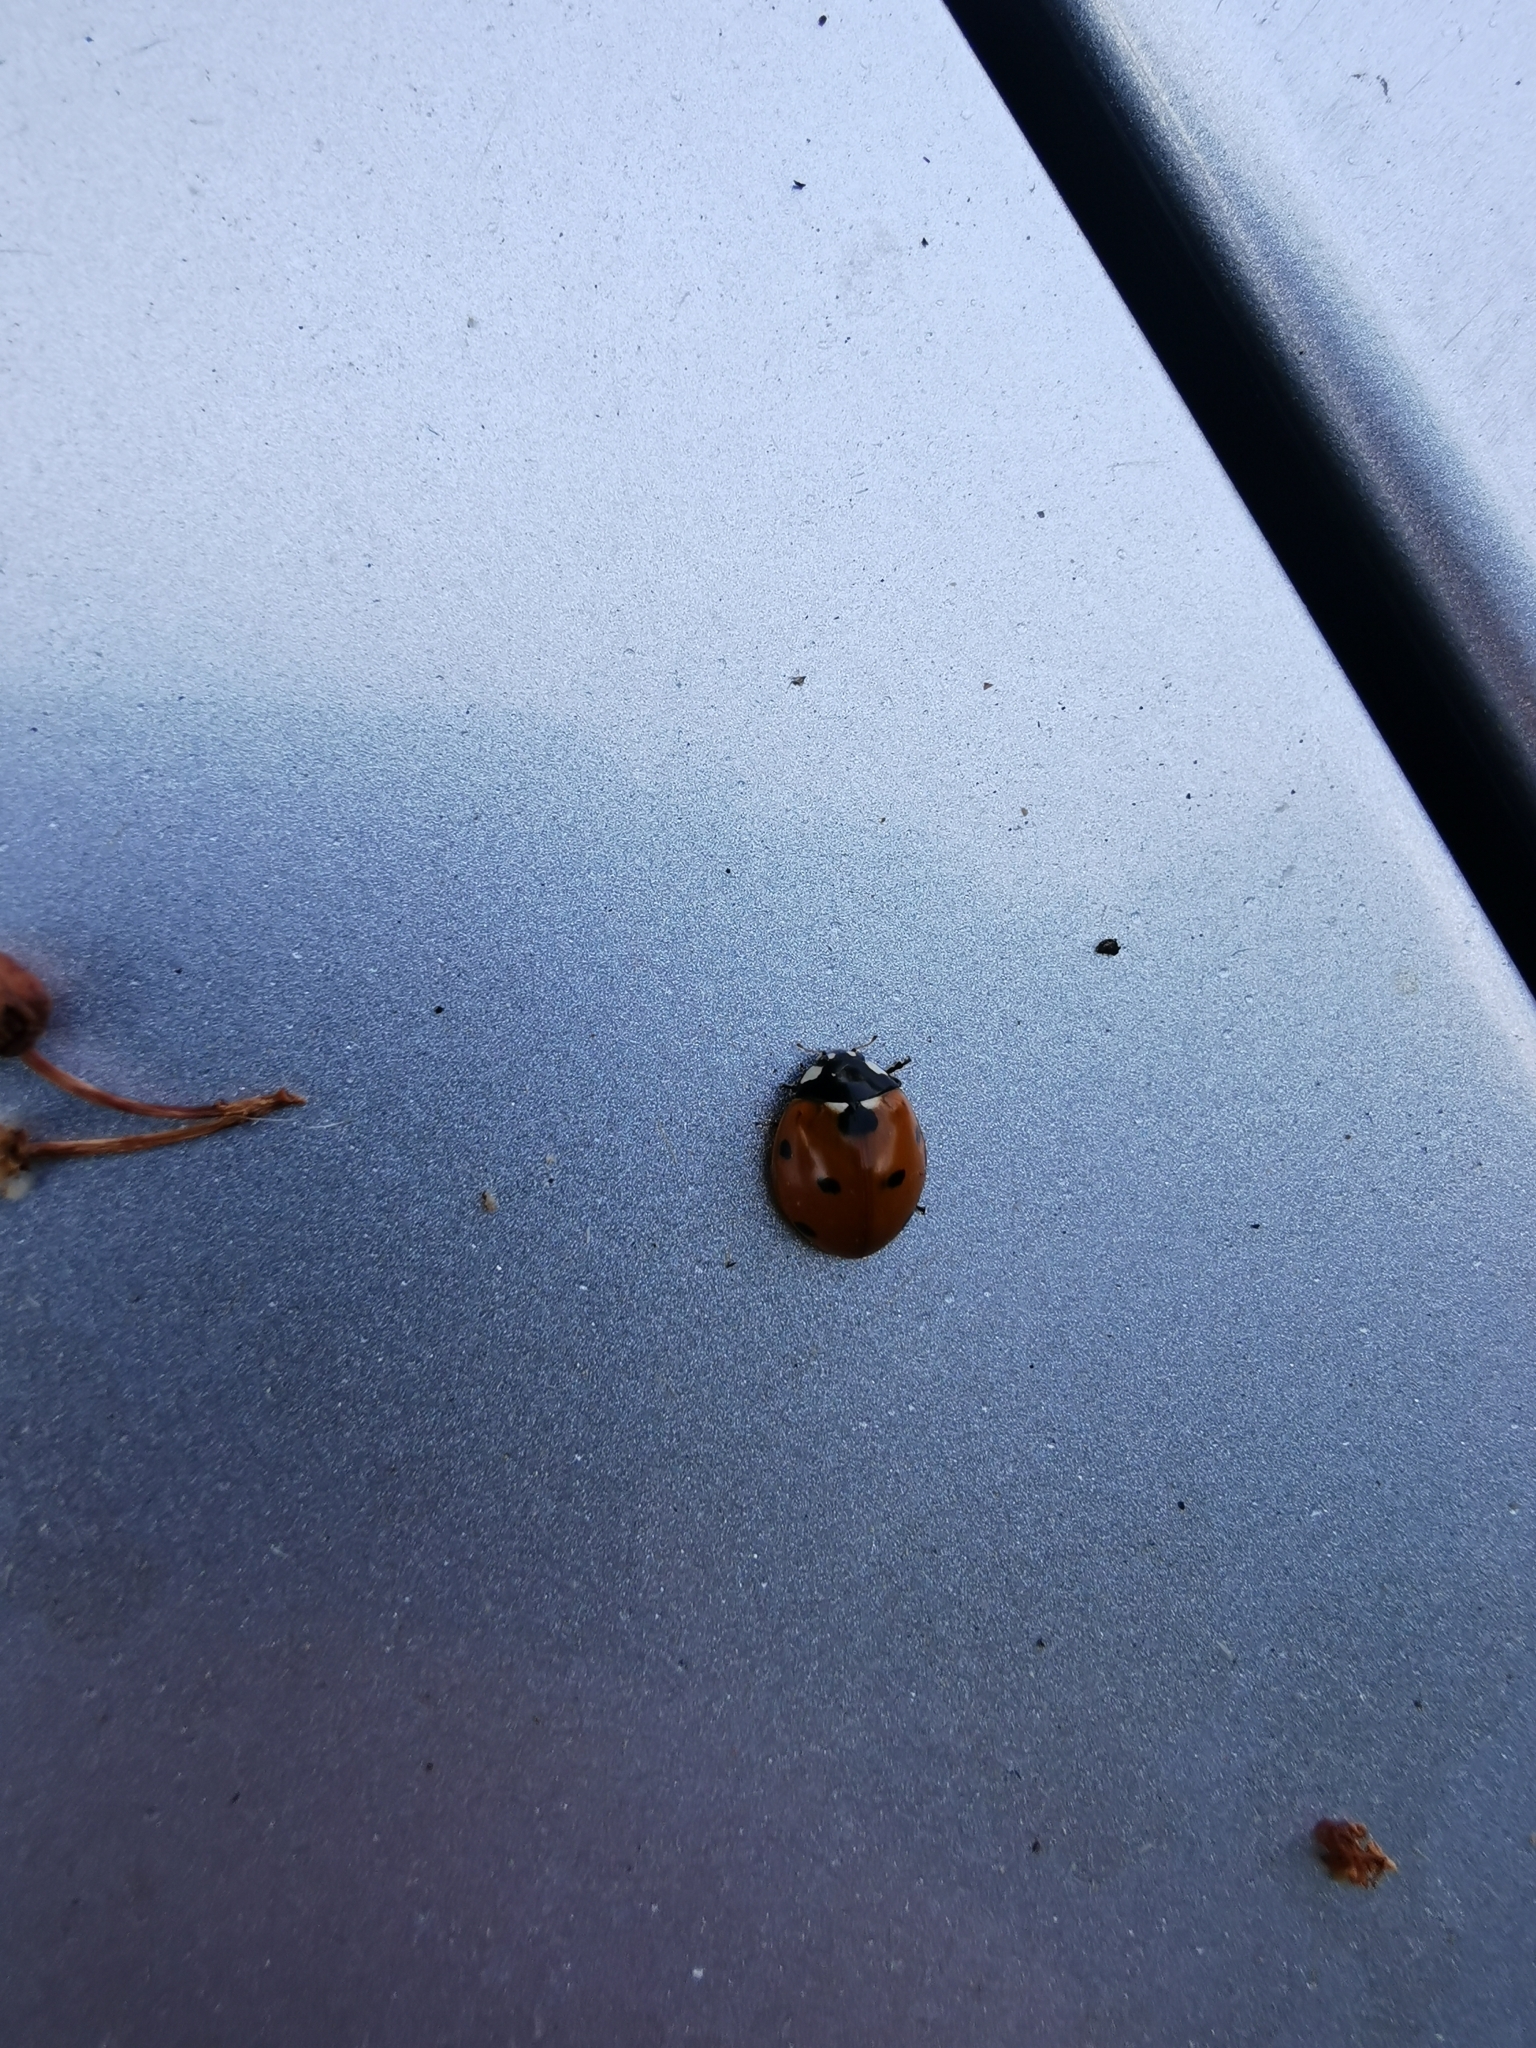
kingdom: Animalia
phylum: Arthropoda
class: Insecta
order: Coleoptera
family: Coccinellidae
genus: Coccinella
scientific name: Coccinella septempunctata
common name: Sevenspotted lady beetle
